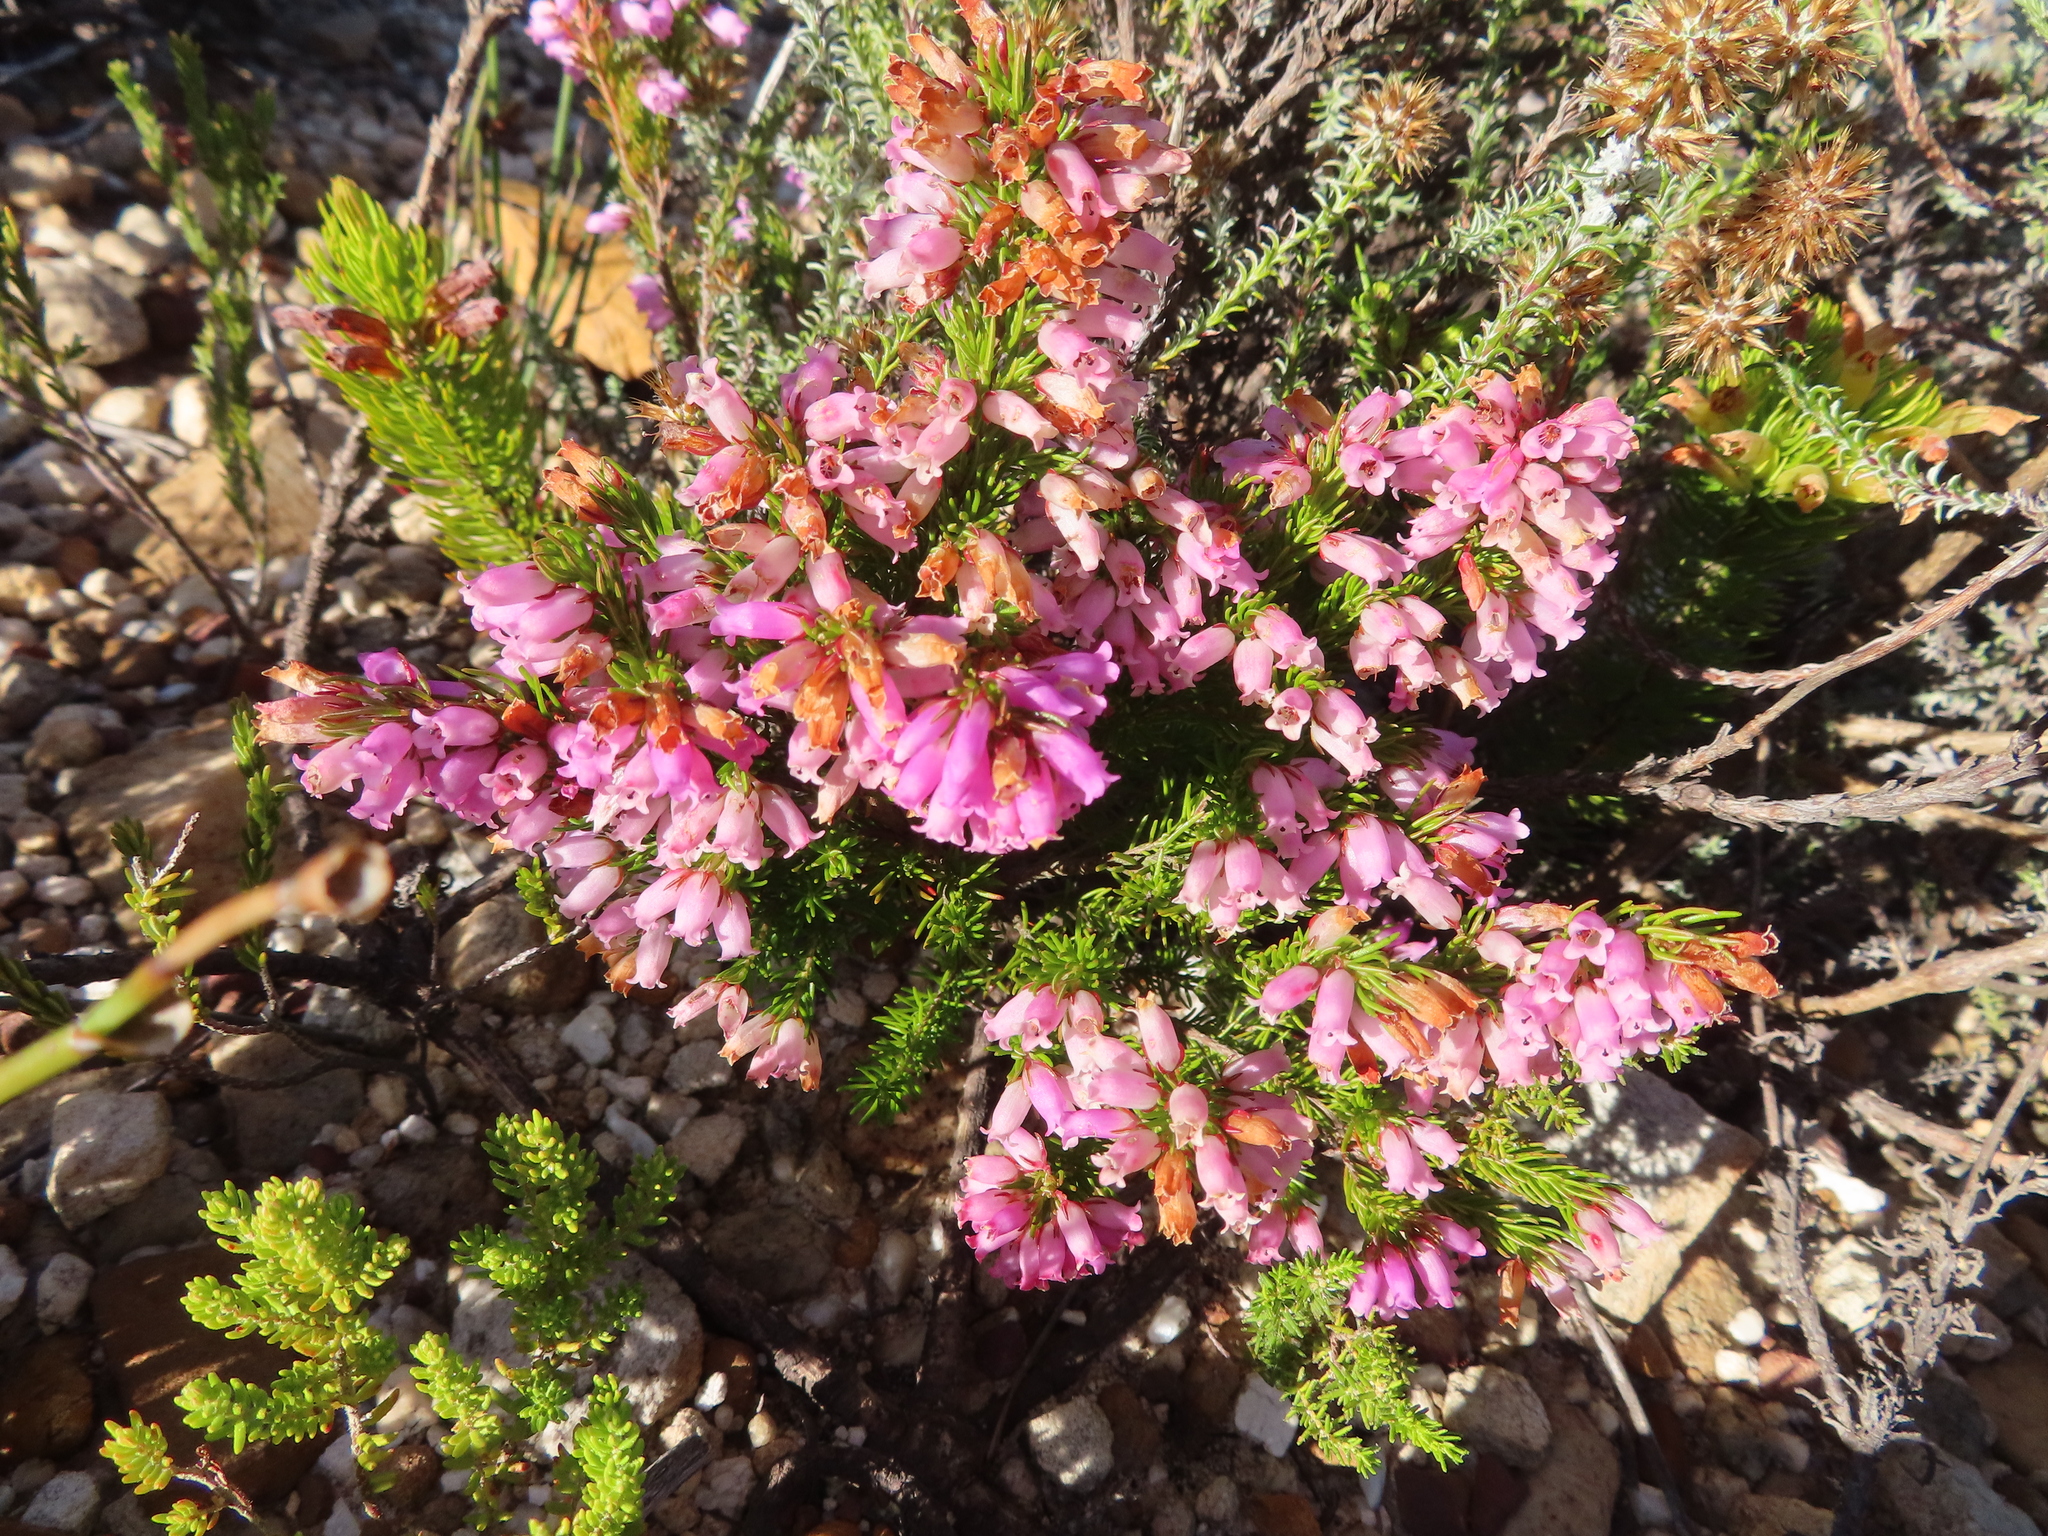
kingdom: Plantae
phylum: Tracheophyta
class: Magnoliopsida
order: Ericales
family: Ericaceae
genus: Erica
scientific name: Erica tenella
